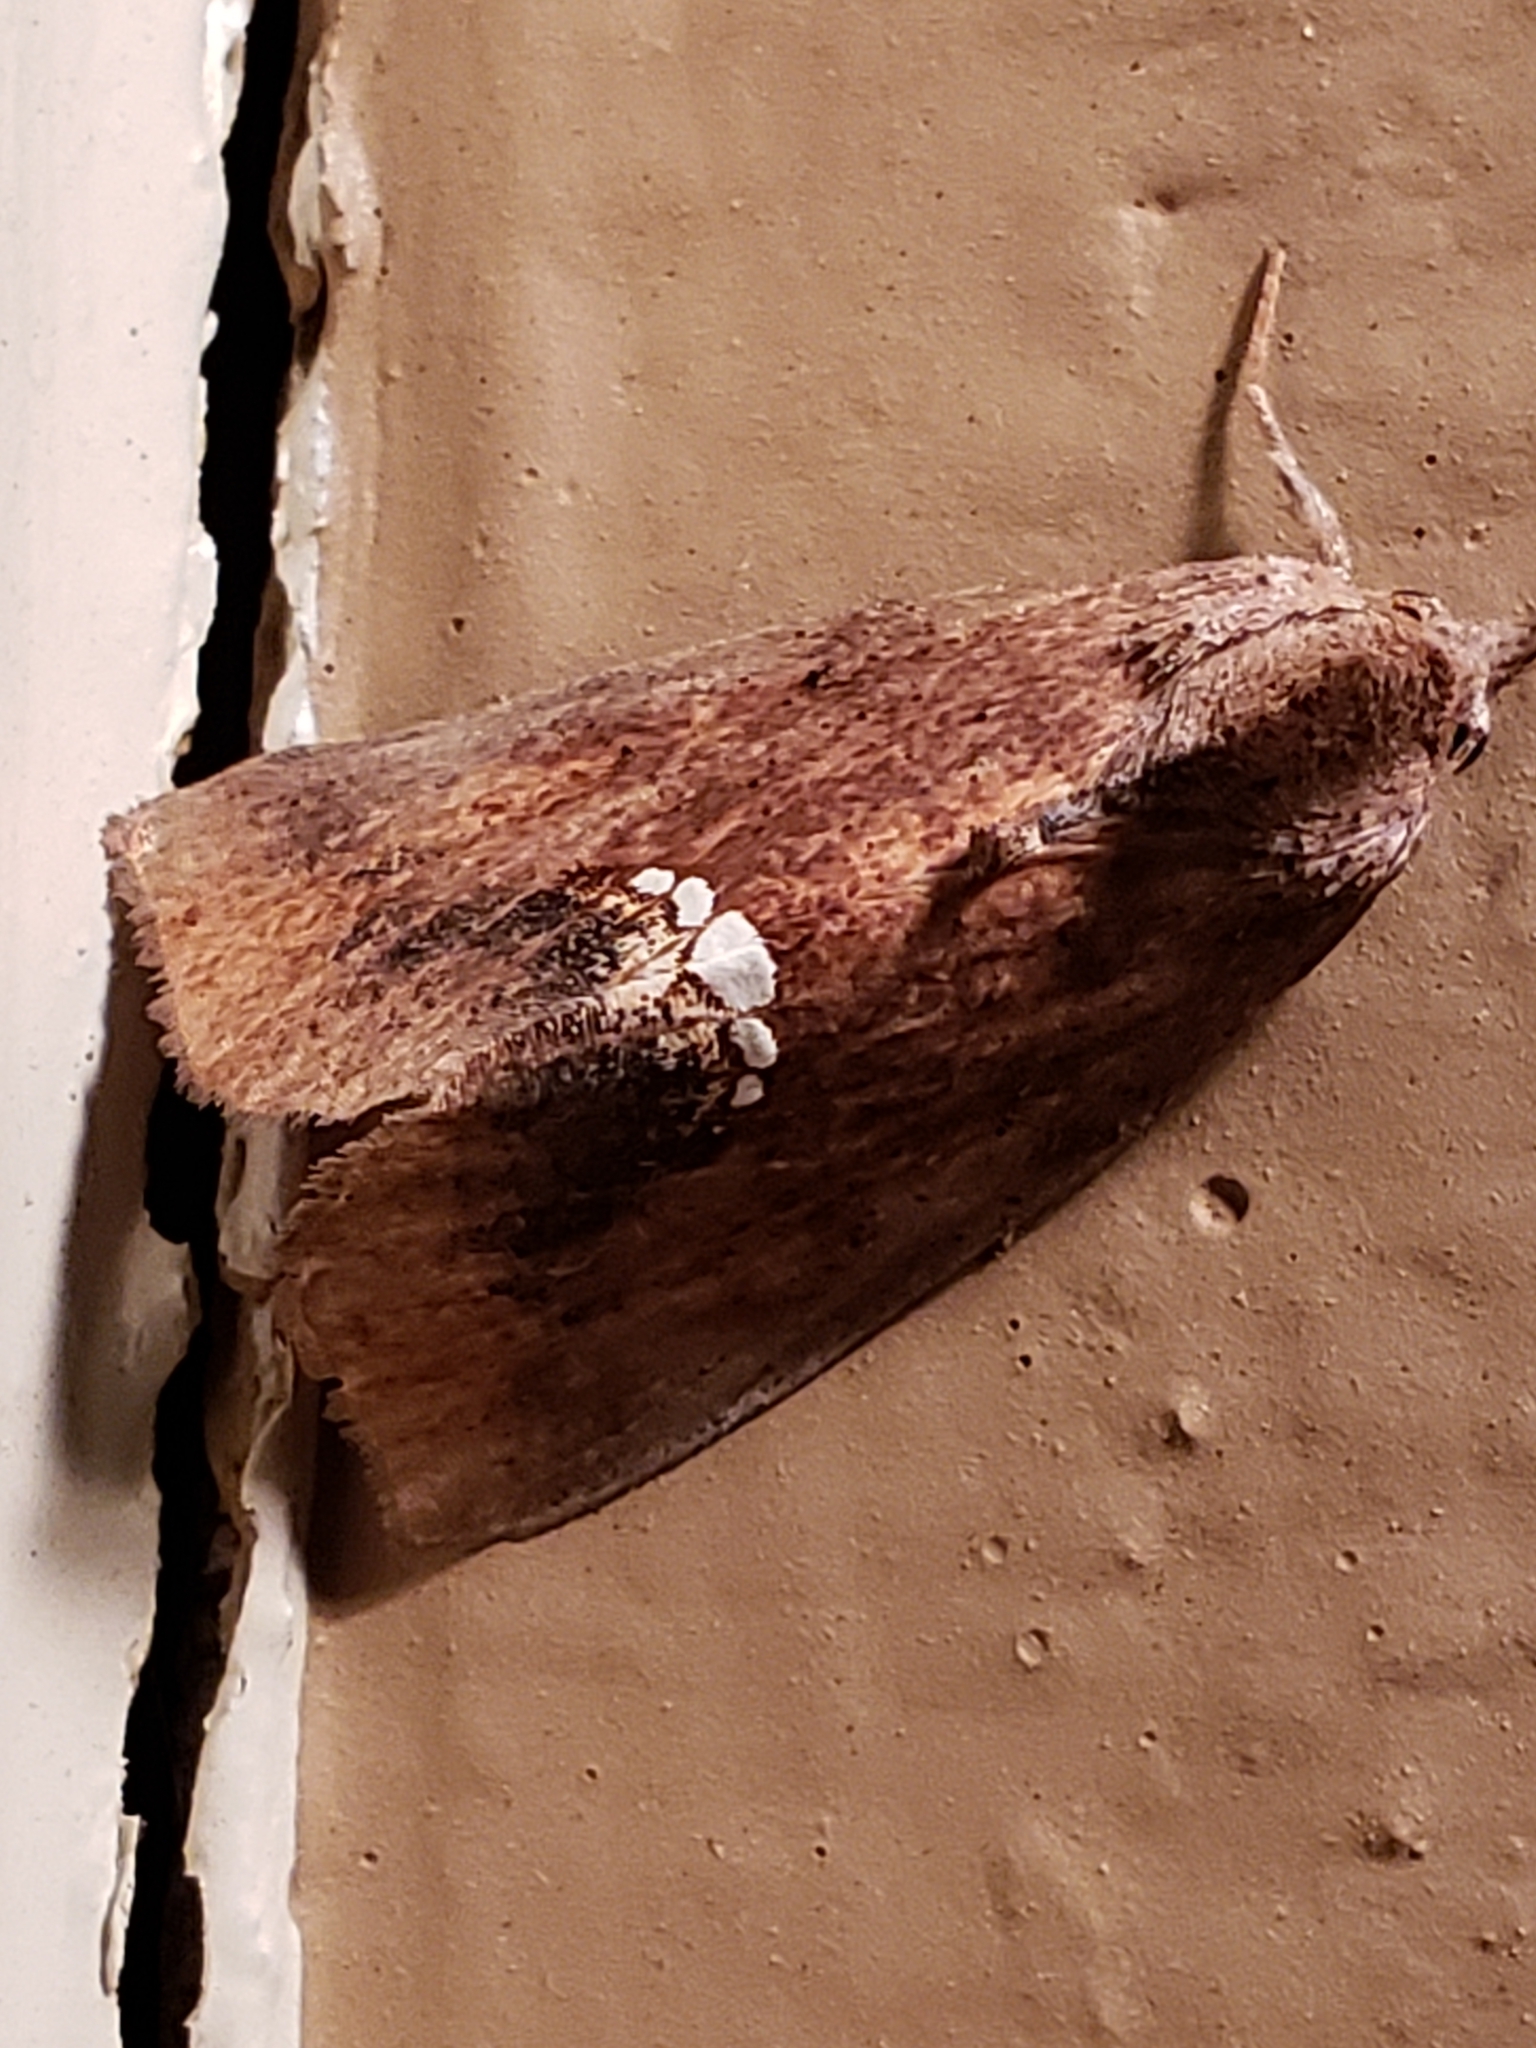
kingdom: Animalia
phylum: Arthropoda
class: Insecta
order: Lepidoptera
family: Erebidae
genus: Hypsoropha
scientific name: Hypsoropha hormos
